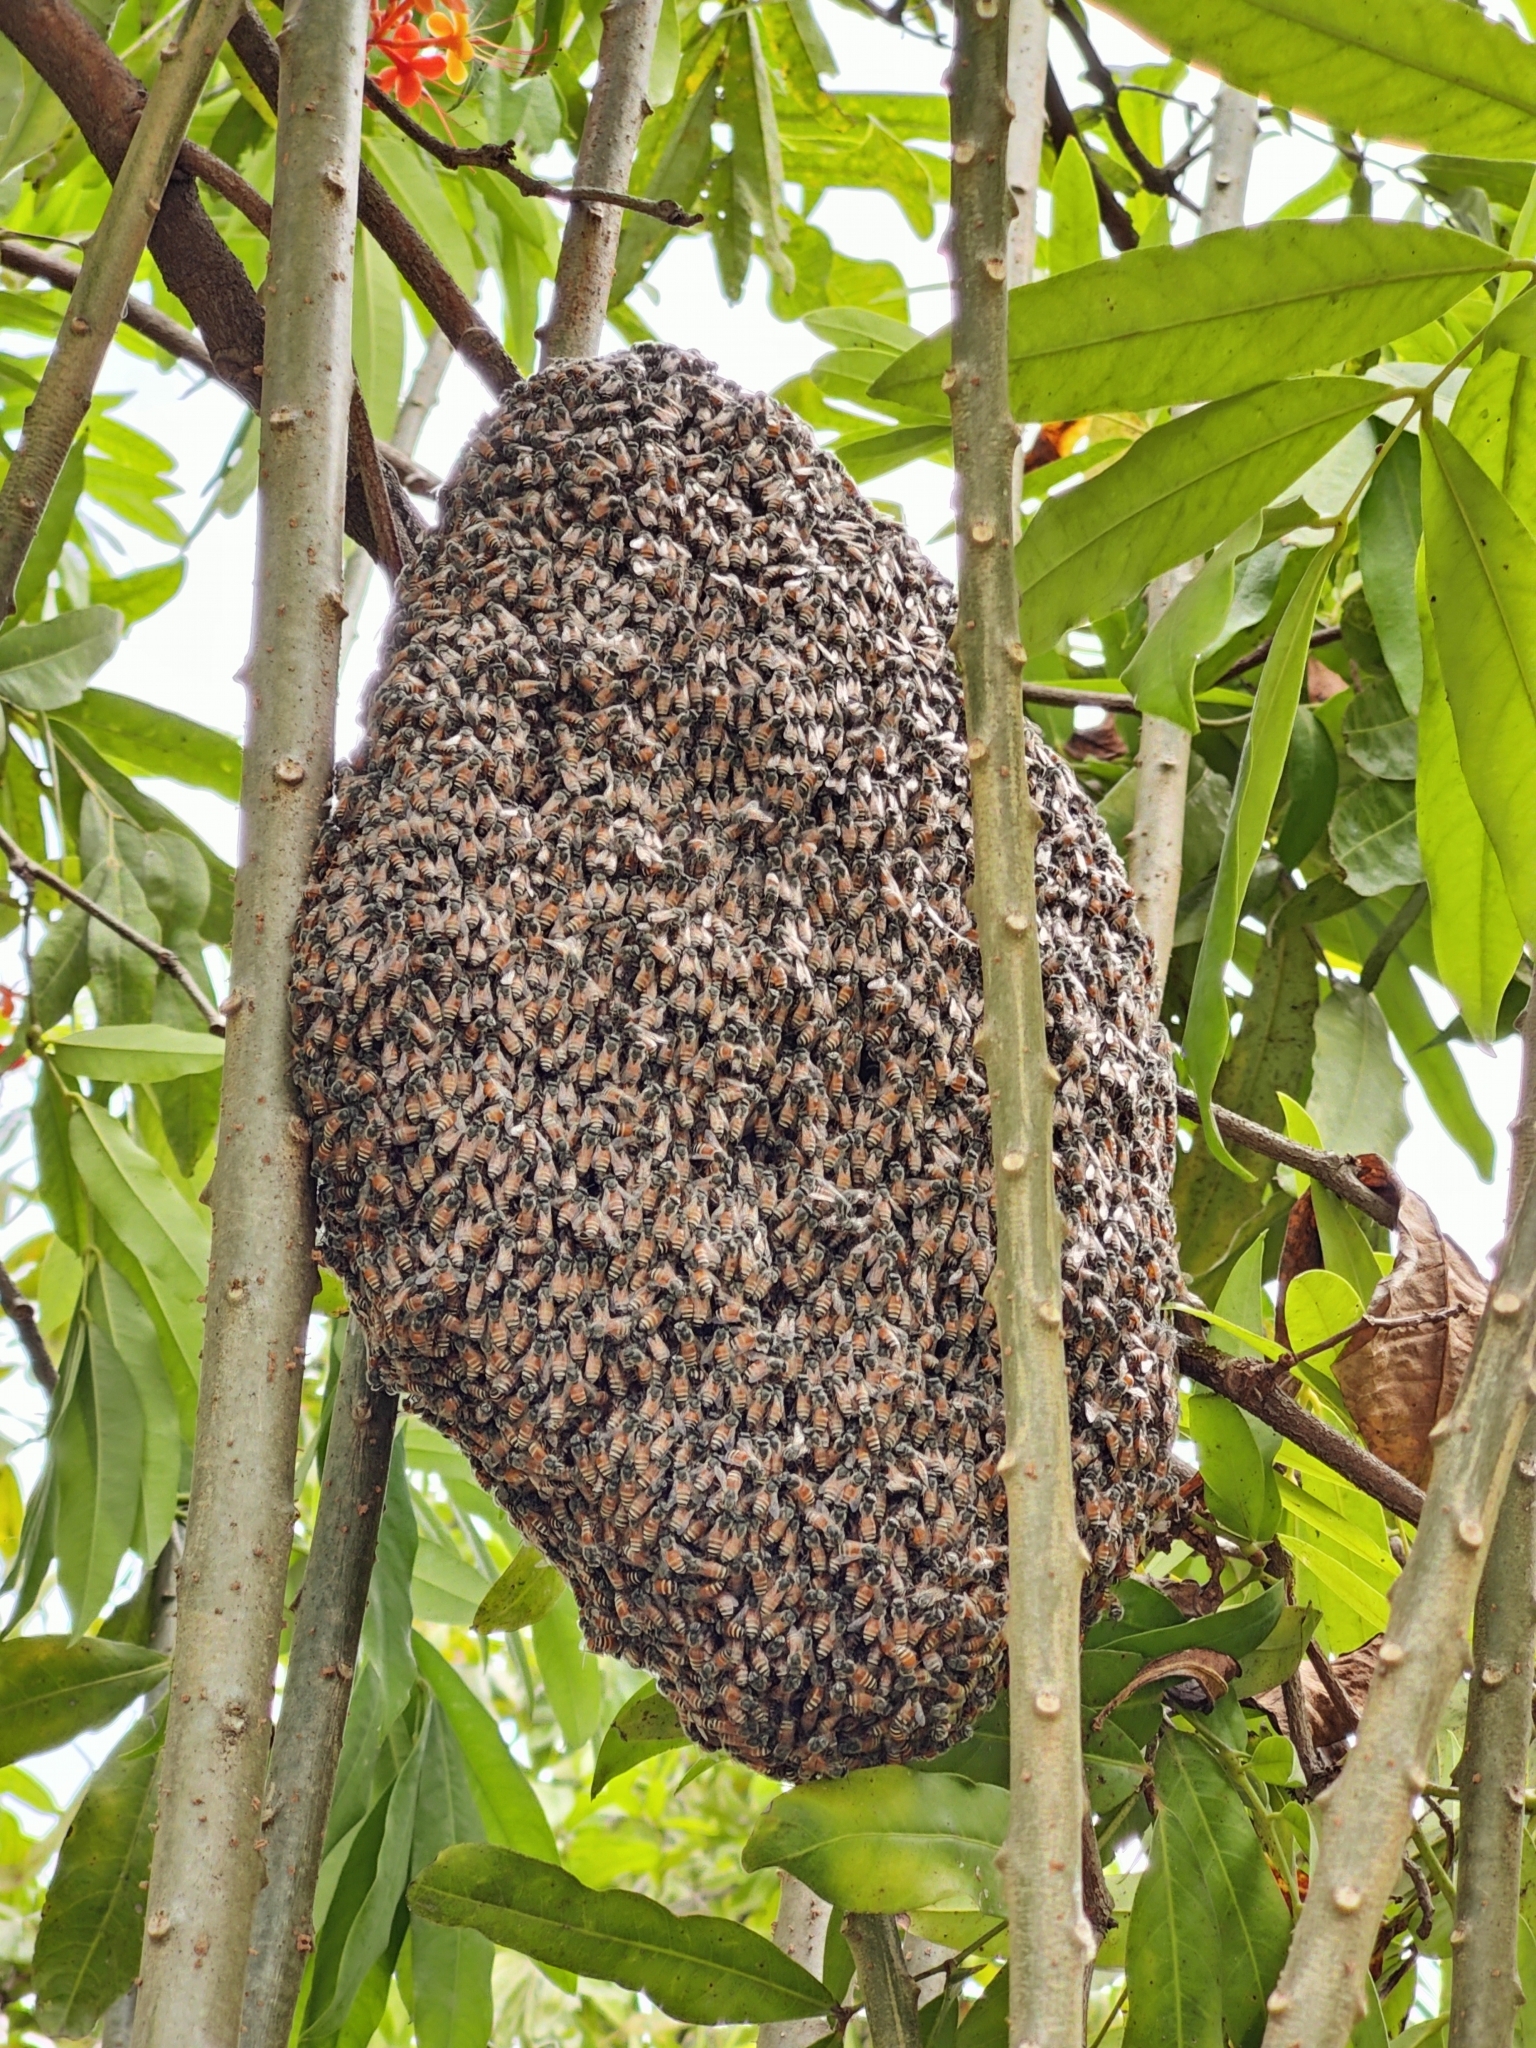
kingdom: Animalia
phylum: Arthropoda
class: Insecta
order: Hymenoptera
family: Apidae
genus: Apis
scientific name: Apis florea
